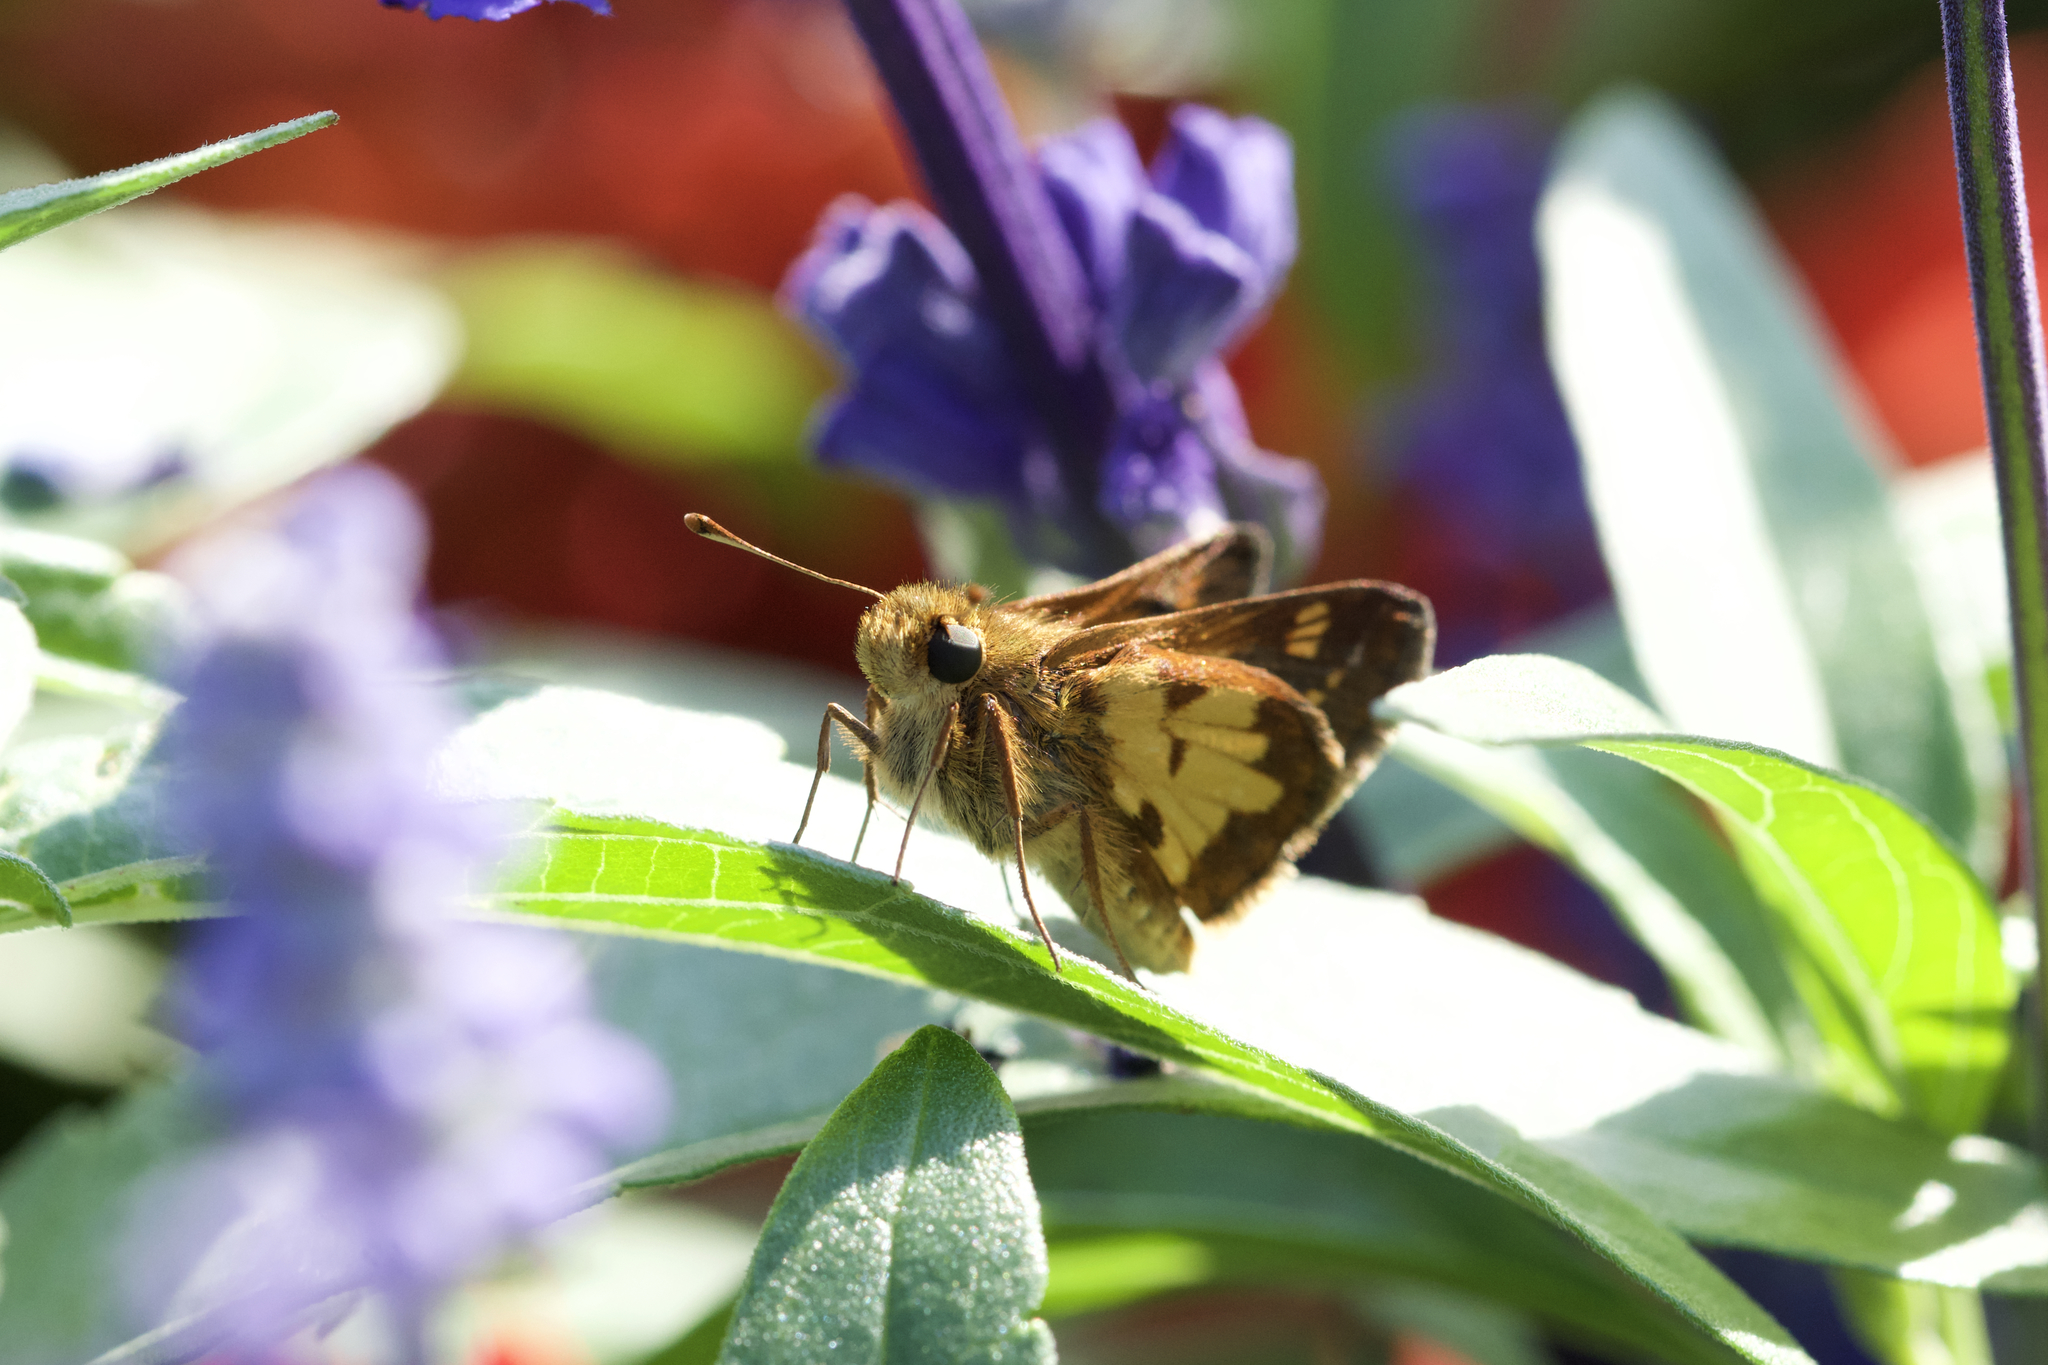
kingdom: Animalia
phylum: Arthropoda
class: Insecta
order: Lepidoptera
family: Hesperiidae
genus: Polites
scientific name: Polites coras
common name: Peck's skipper
